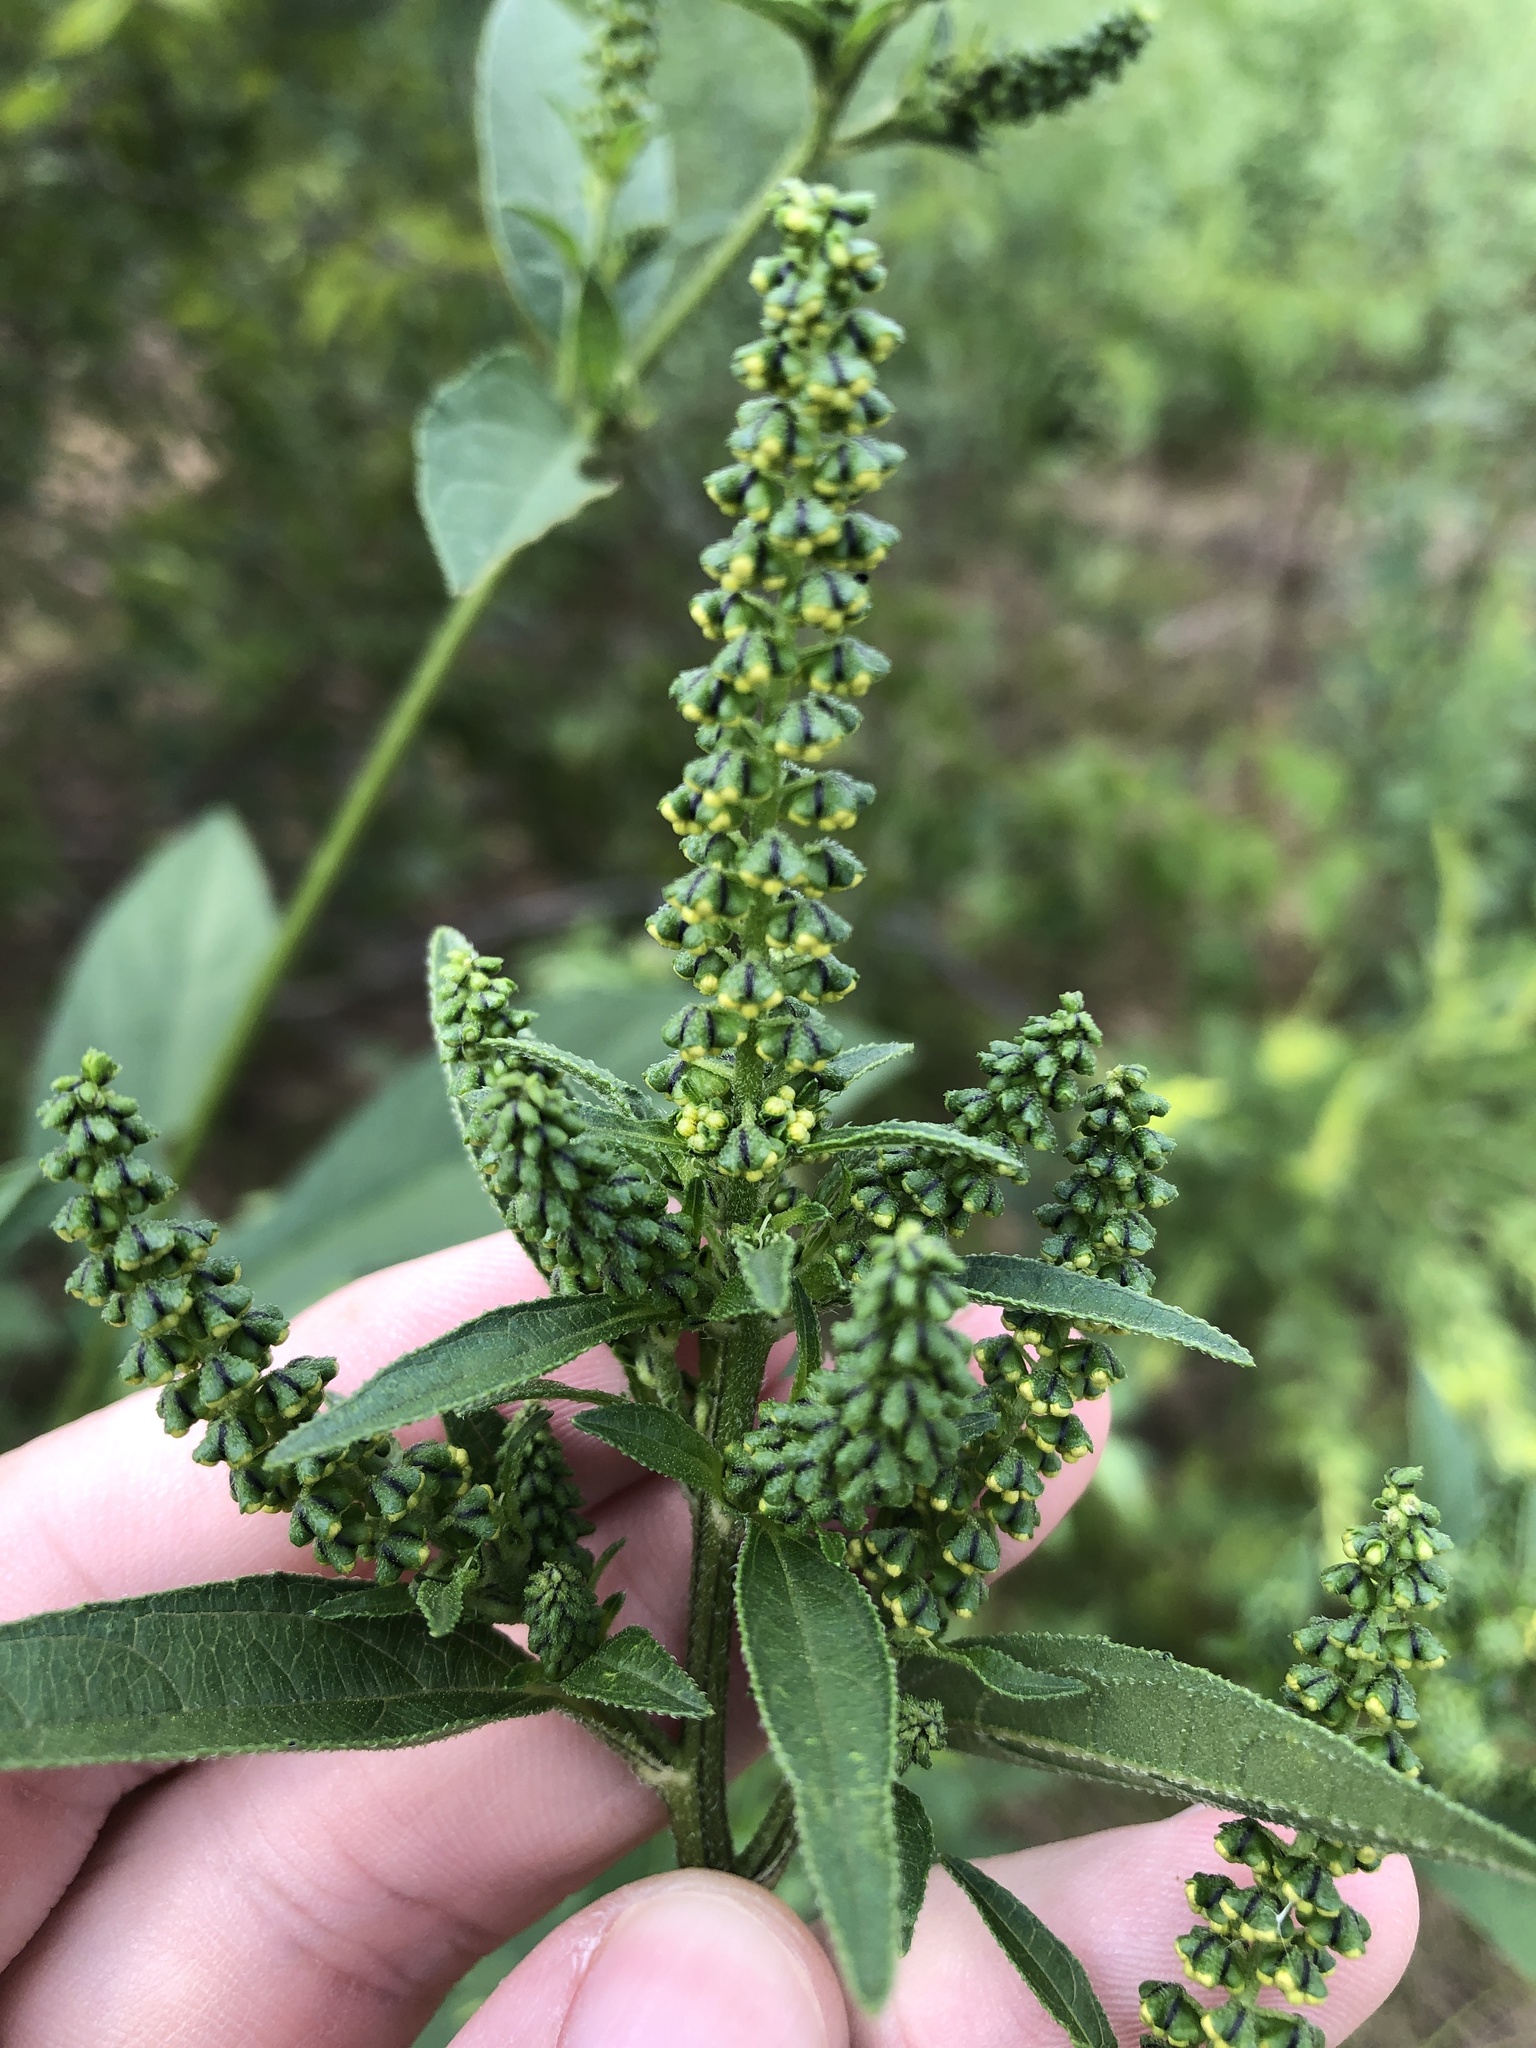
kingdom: Plantae
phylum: Tracheophyta
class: Magnoliopsida
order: Asterales
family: Asteraceae
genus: Ambrosia
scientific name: Ambrosia trifida
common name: Giant ragweed
